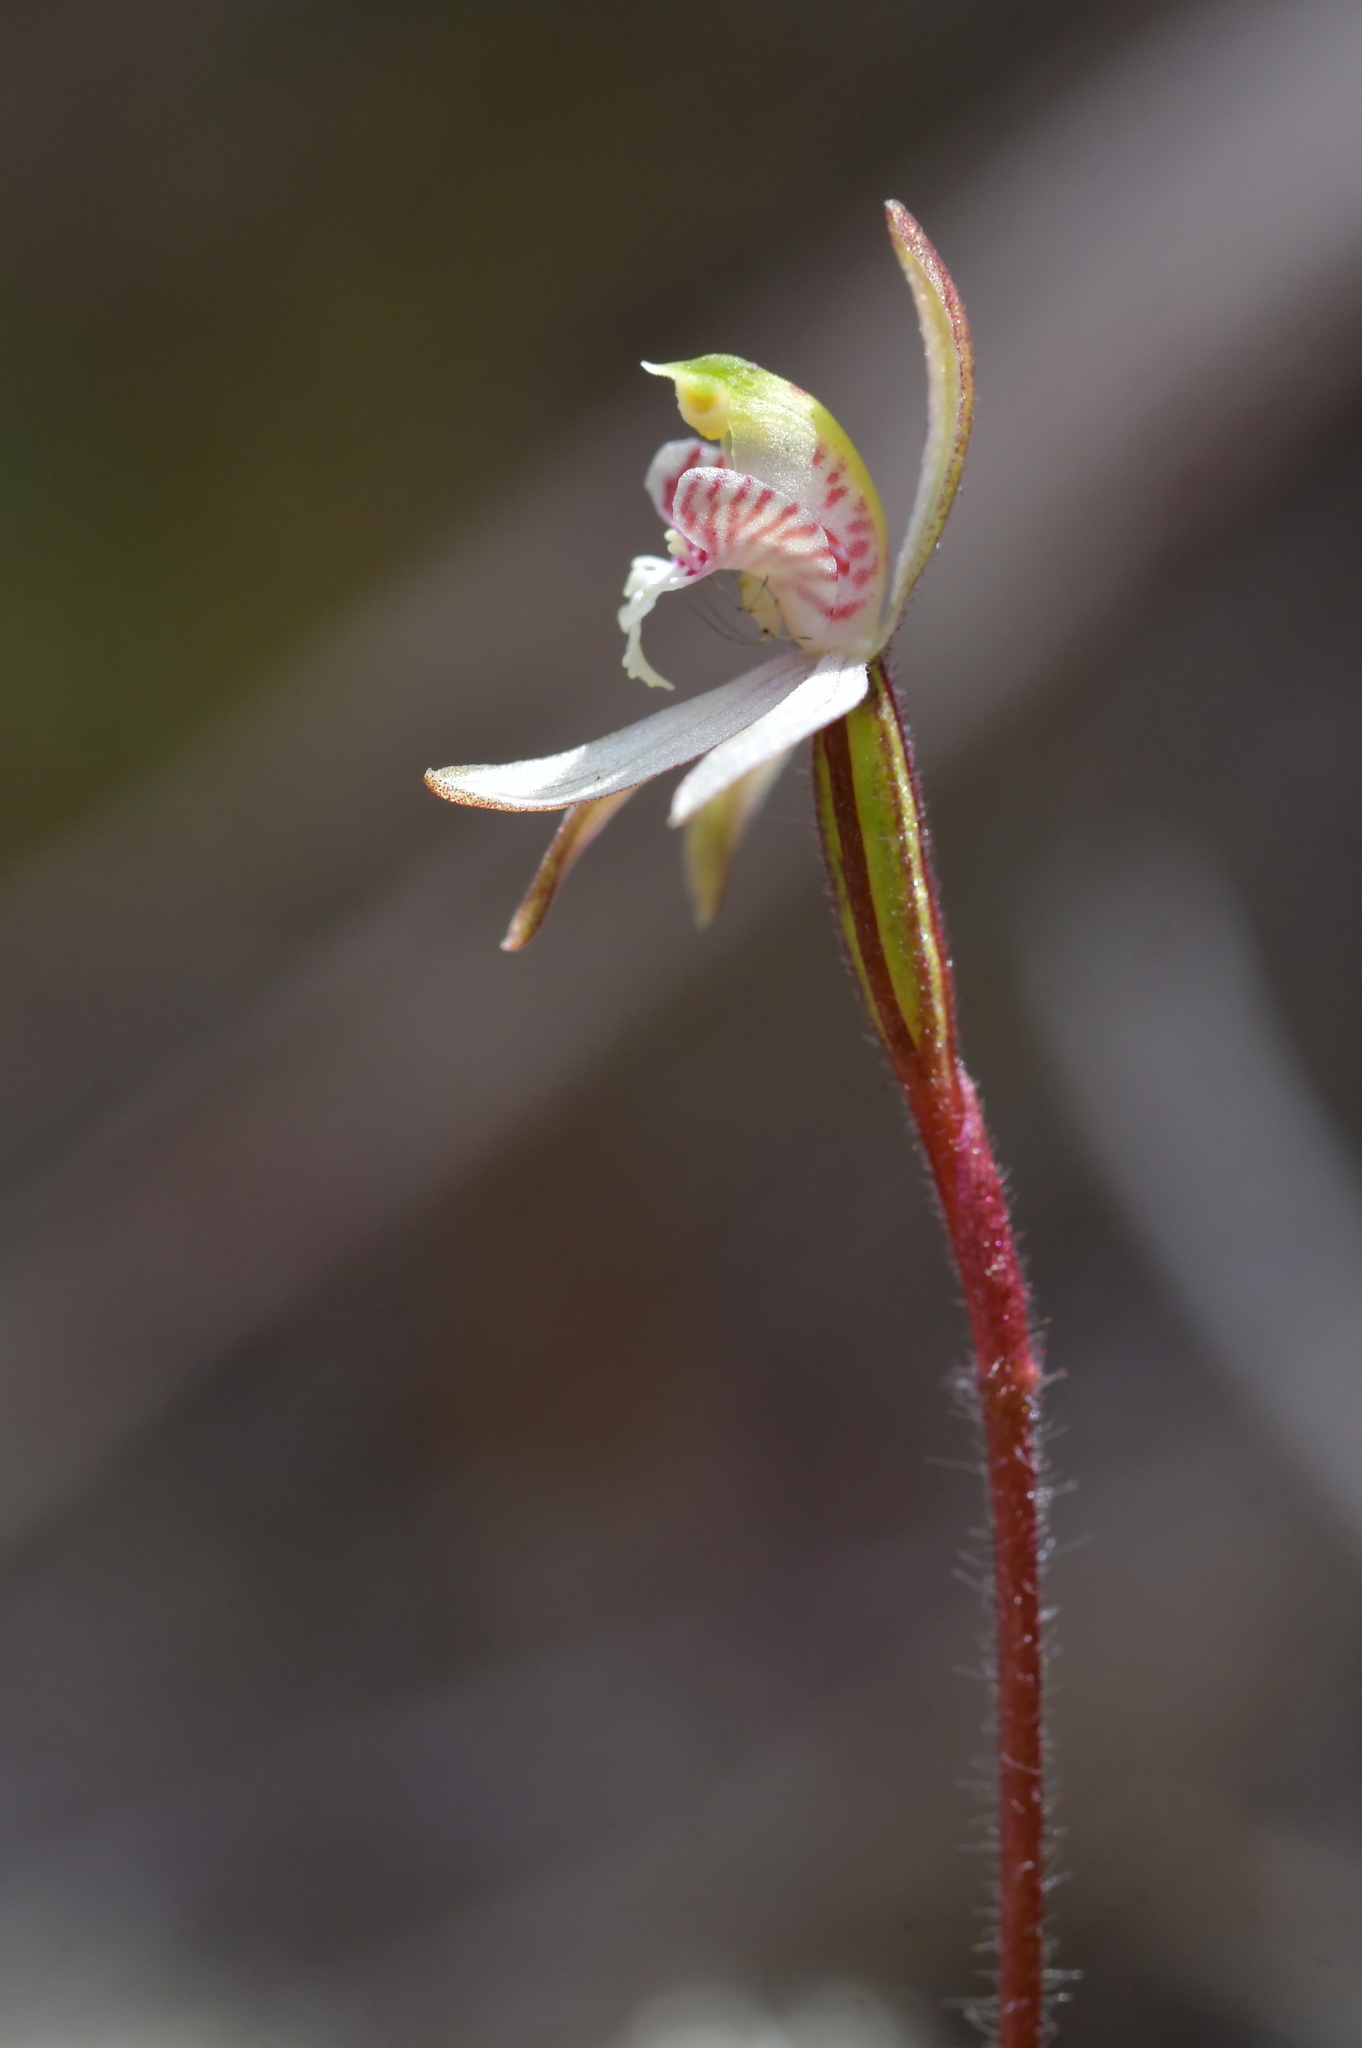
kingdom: Plantae
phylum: Tracheophyta
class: Liliopsida
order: Asparagales
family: Orchidaceae
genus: Caladenia
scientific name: Caladenia chlorostyla
